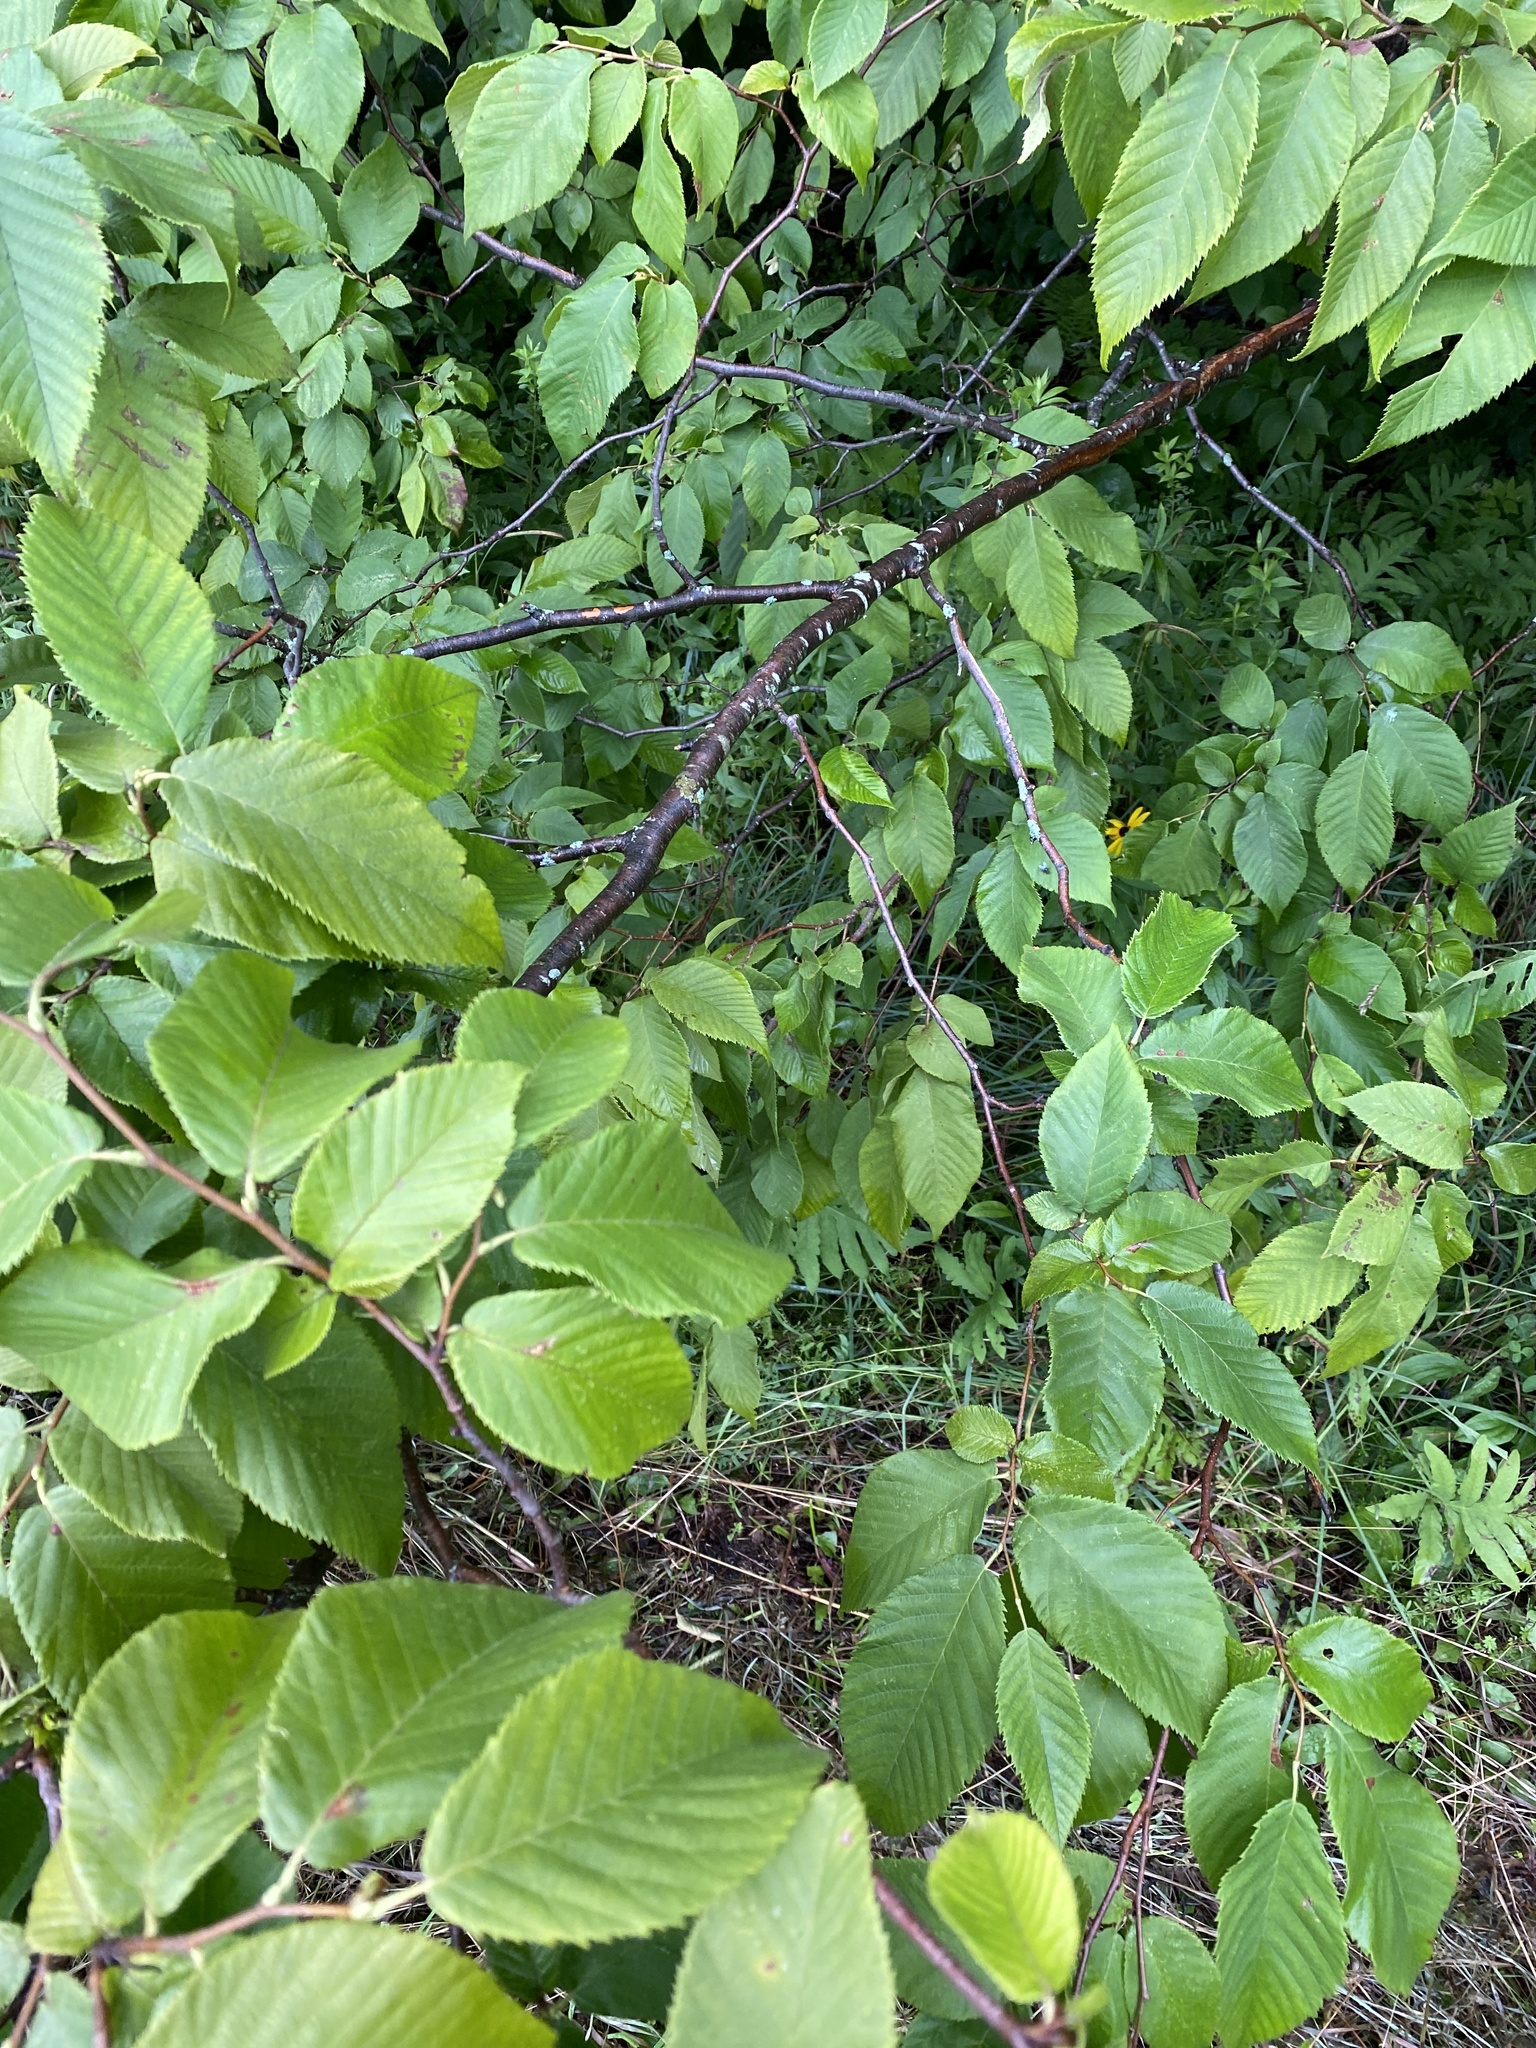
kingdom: Plantae
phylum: Tracheophyta
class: Magnoliopsida
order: Fagales
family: Betulaceae
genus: Ostrya
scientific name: Ostrya virginiana
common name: Ironwood
